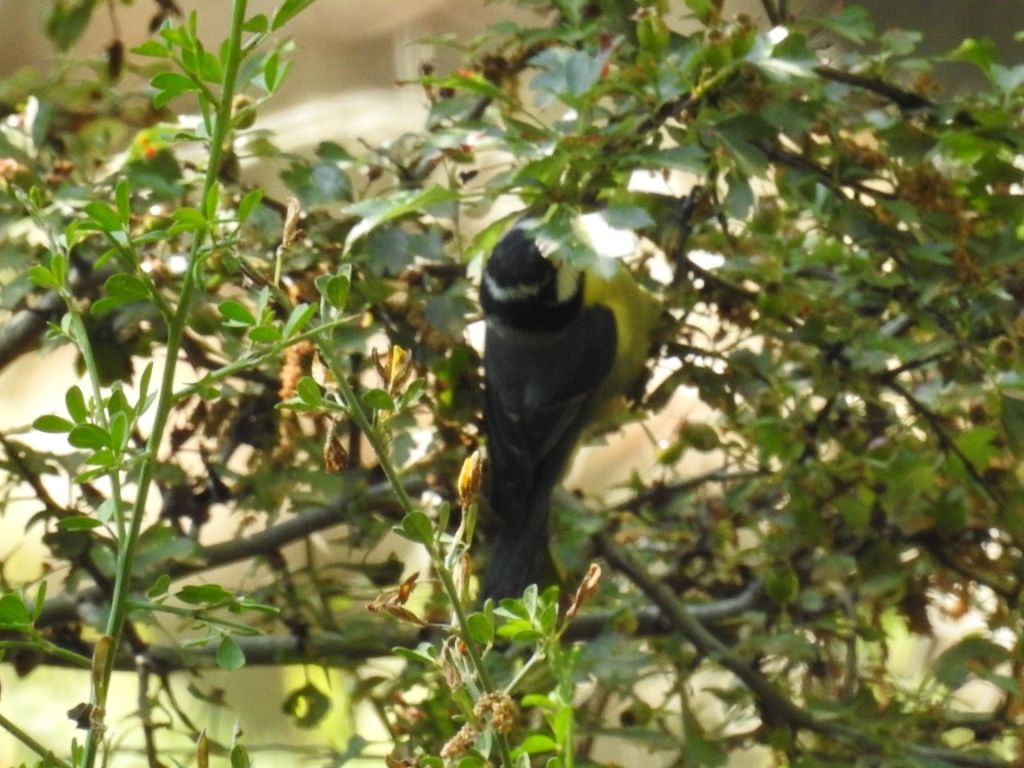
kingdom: Animalia
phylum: Chordata
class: Aves
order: Passeriformes
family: Paridae
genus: Cyanistes
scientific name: Cyanistes teneriffae
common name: African blue tit
